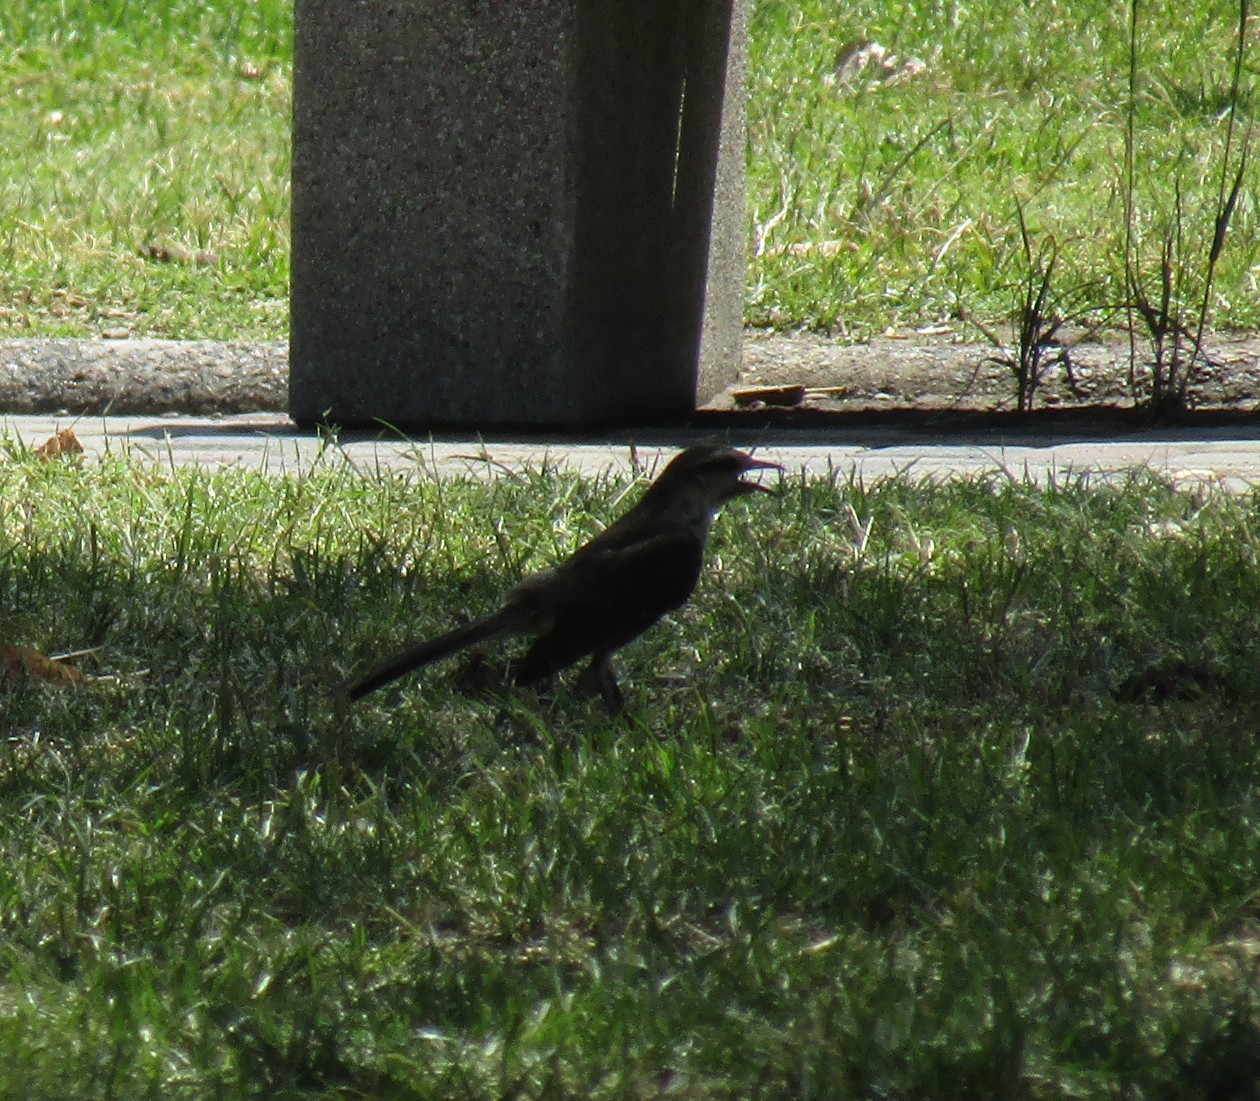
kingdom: Animalia
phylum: Chordata
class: Aves
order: Passeriformes
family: Mimidae
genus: Mimus
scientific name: Mimus saturninus
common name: Chalk-browed mockingbird
